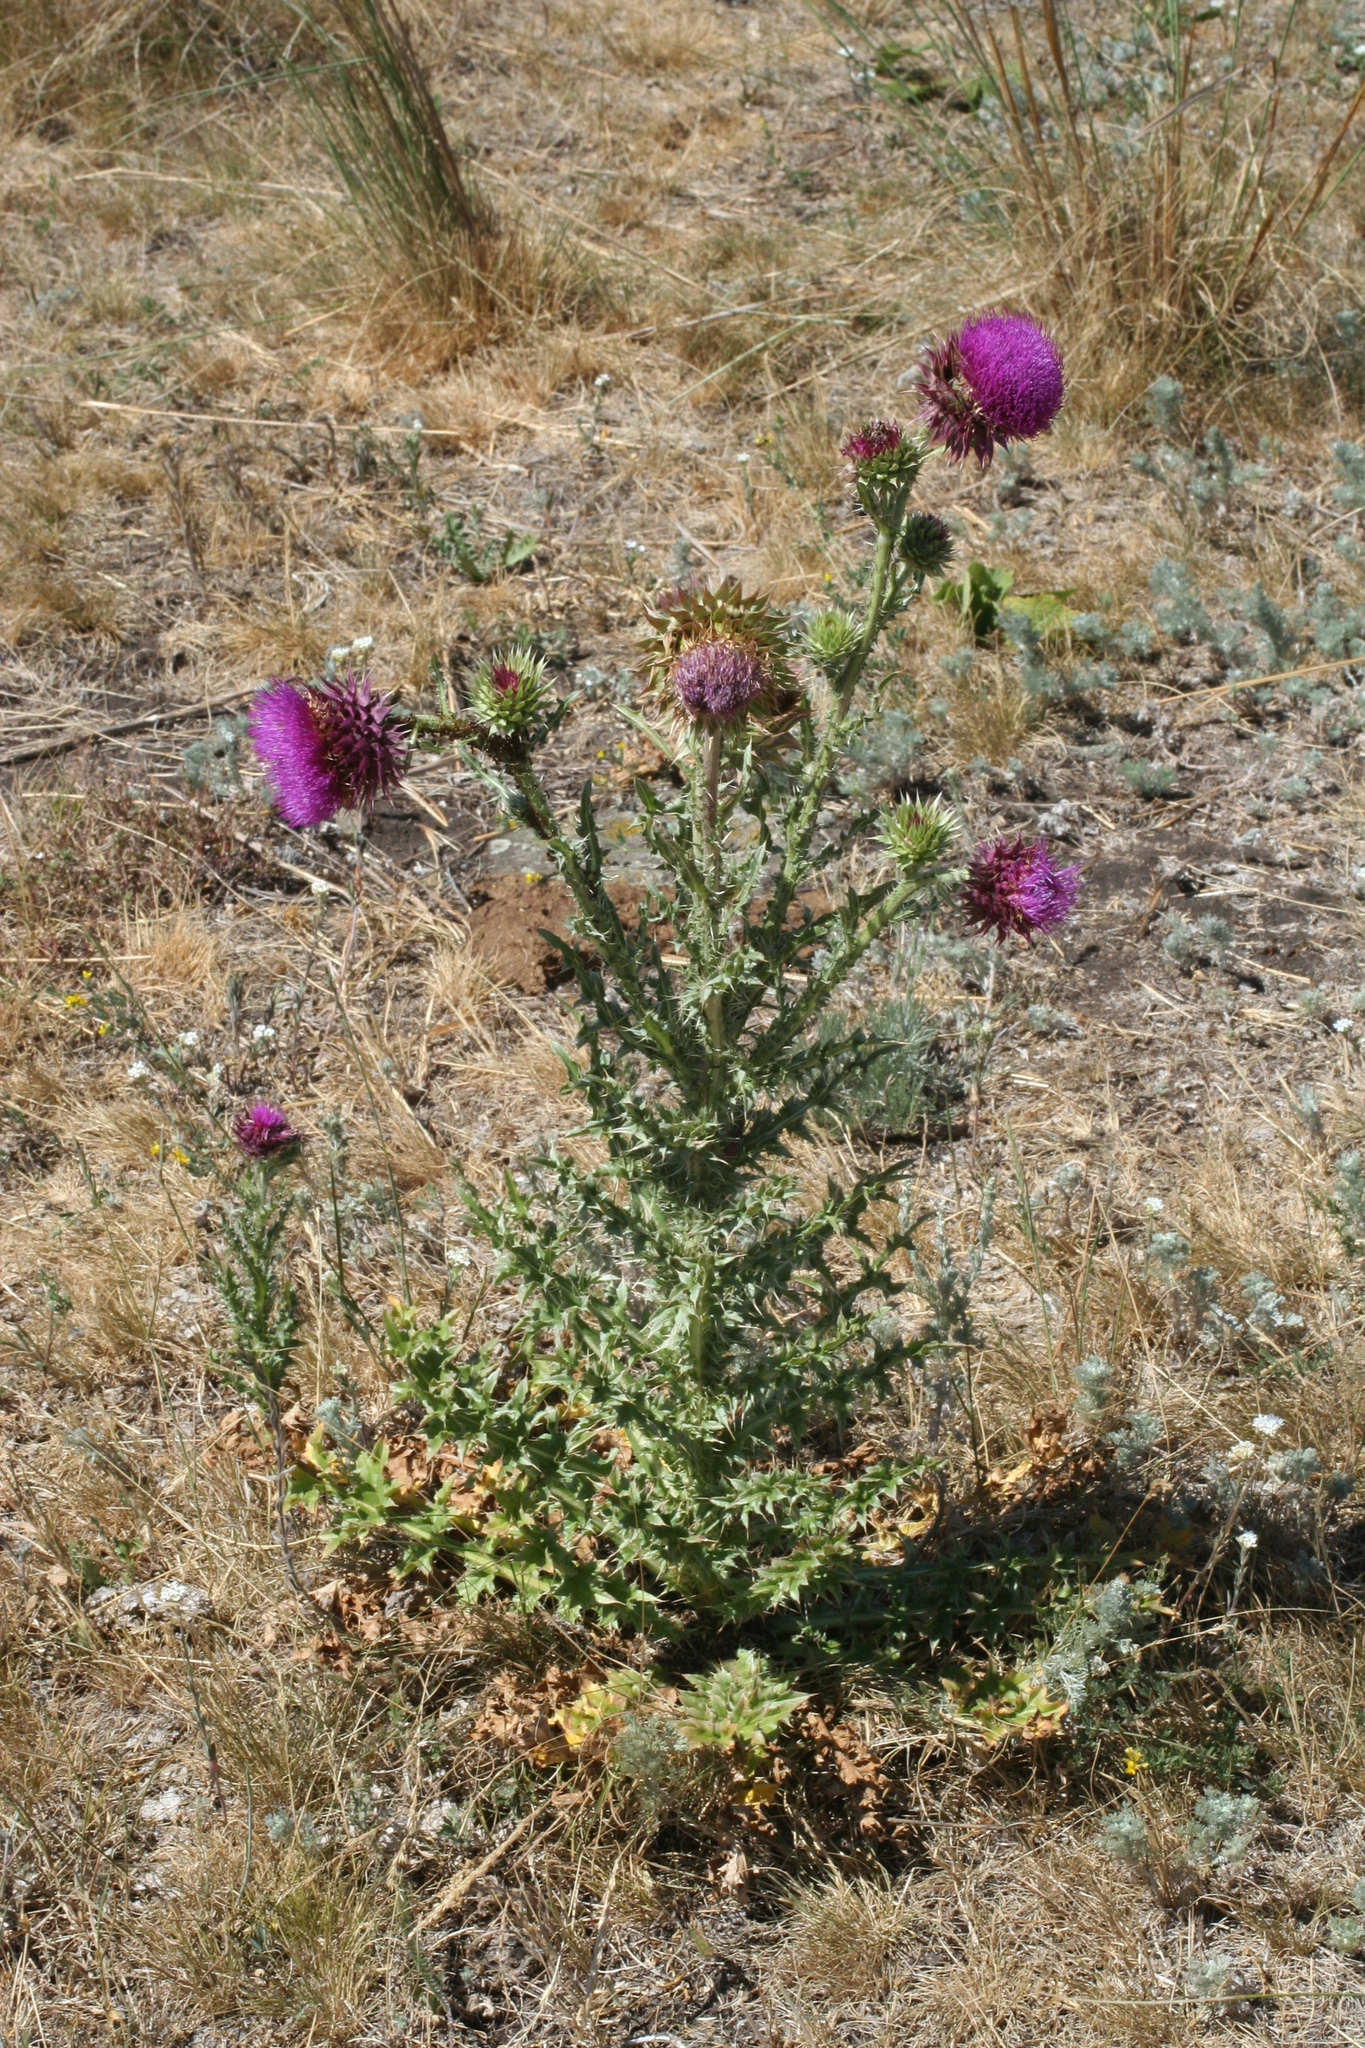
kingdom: Plantae
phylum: Tracheophyta
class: Magnoliopsida
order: Asterales
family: Asteraceae
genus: Carduus
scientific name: Carduus nutans
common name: Musk thistle
